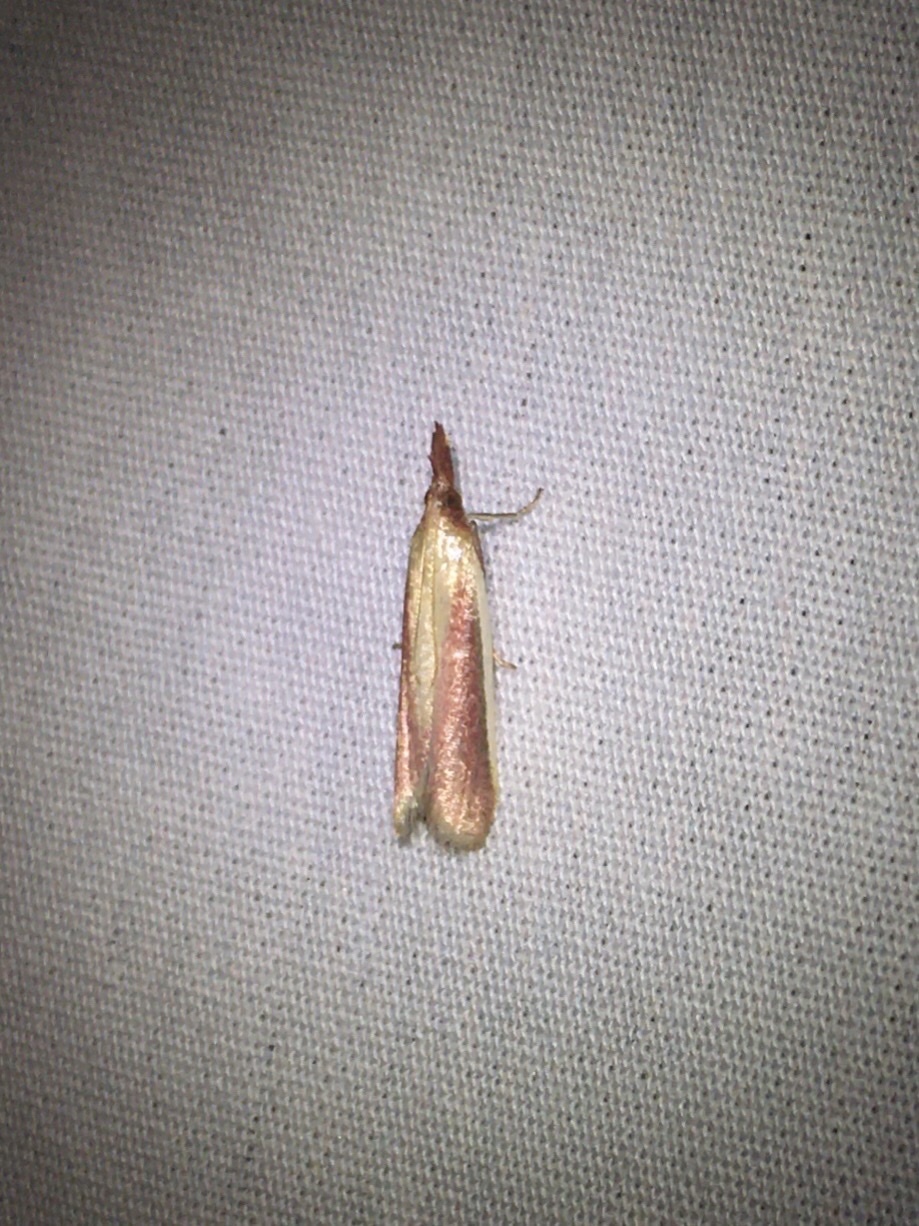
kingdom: Animalia
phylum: Arthropoda
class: Insecta
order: Lepidoptera
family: Pyralidae
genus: Peoria
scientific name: Peoria approximella
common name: Carmine snout
